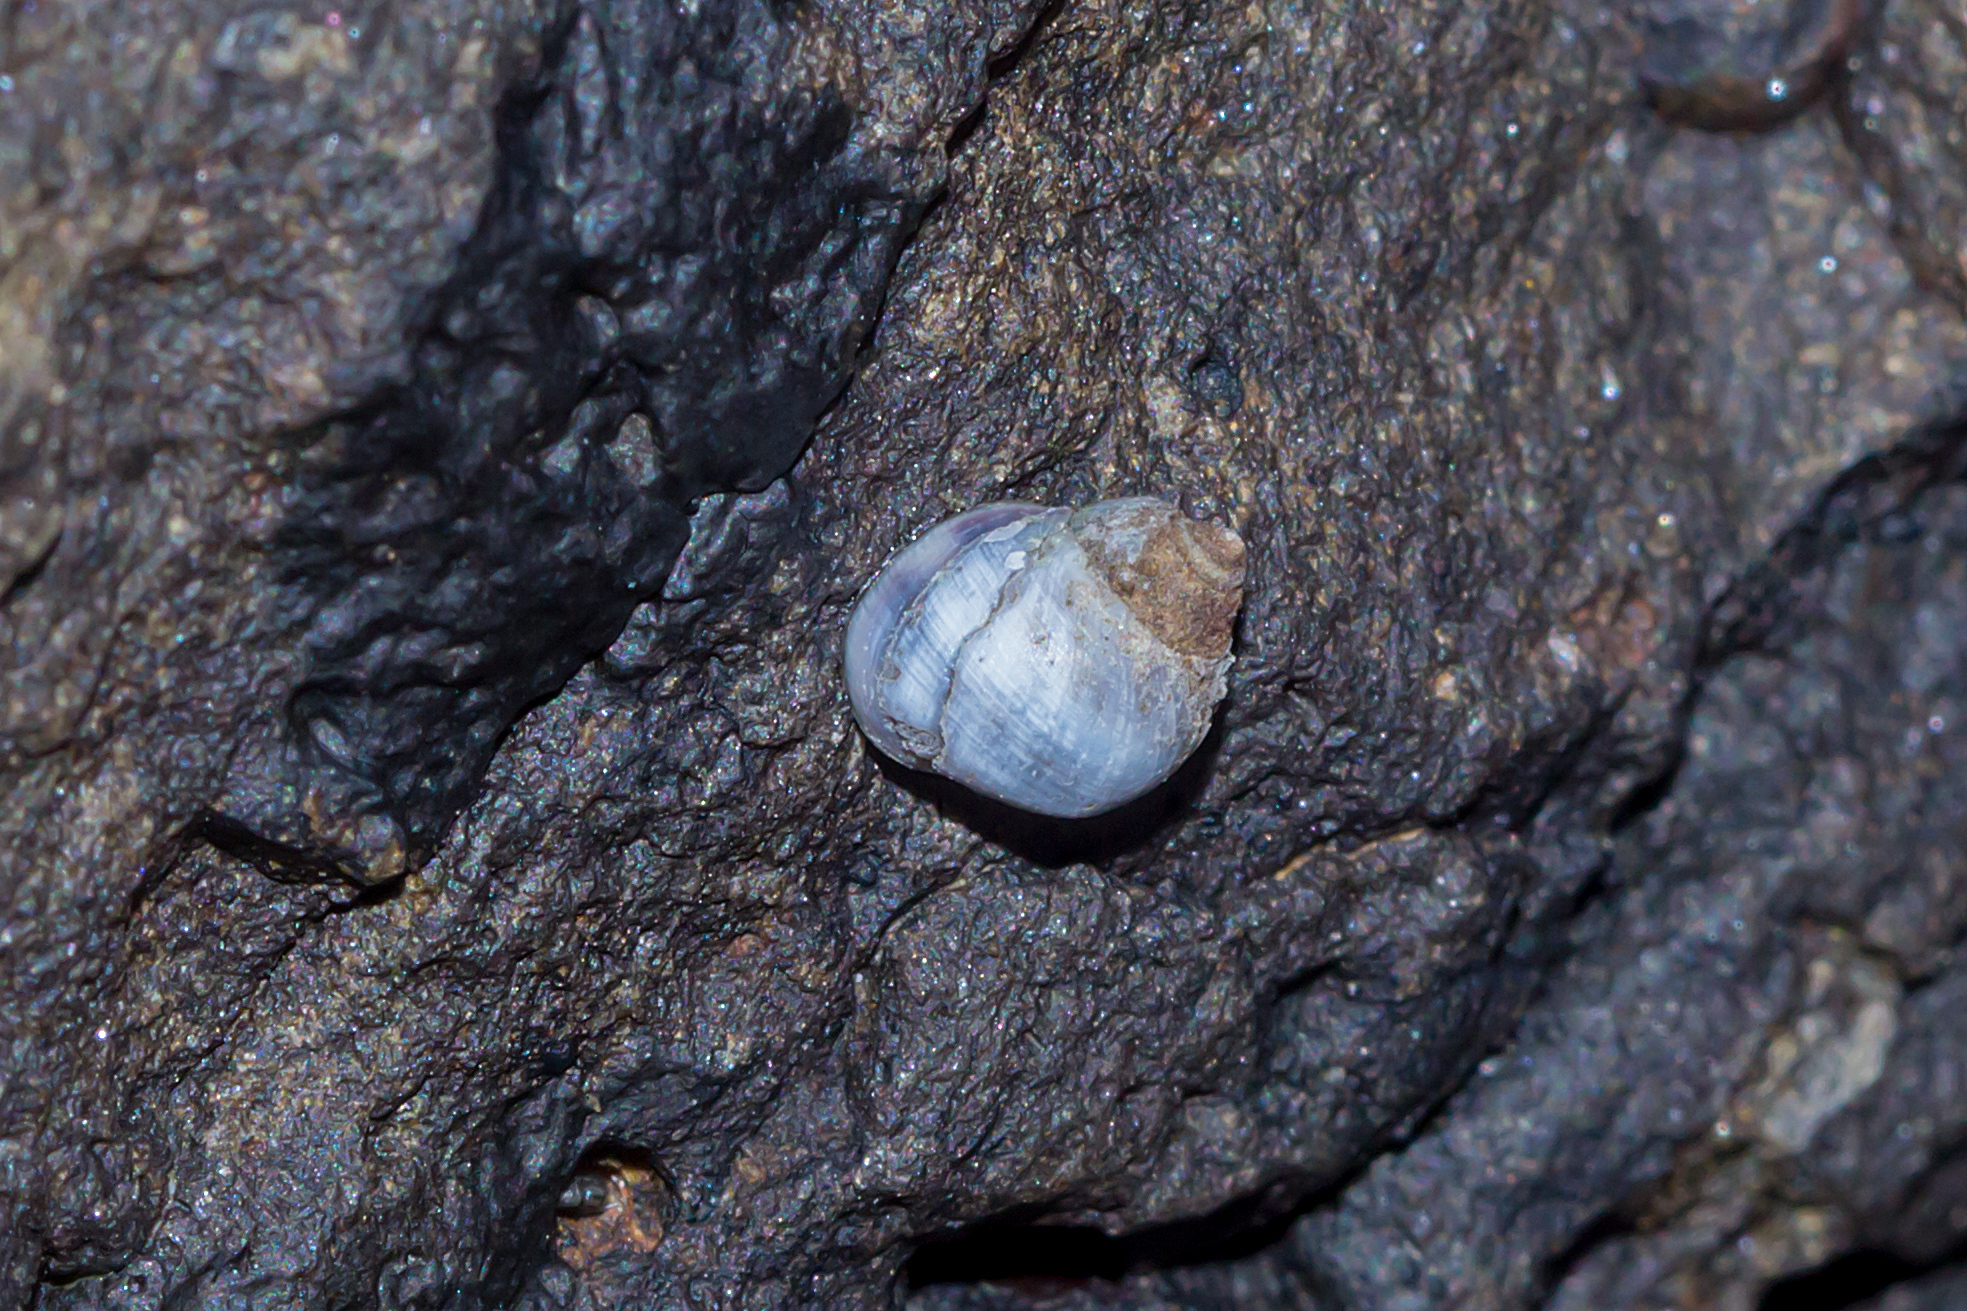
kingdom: Animalia
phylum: Mollusca
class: Gastropoda
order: Littorinimorpha
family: Littorinidae
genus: Austrolittorina
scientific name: Austrolittorina unifasciata
